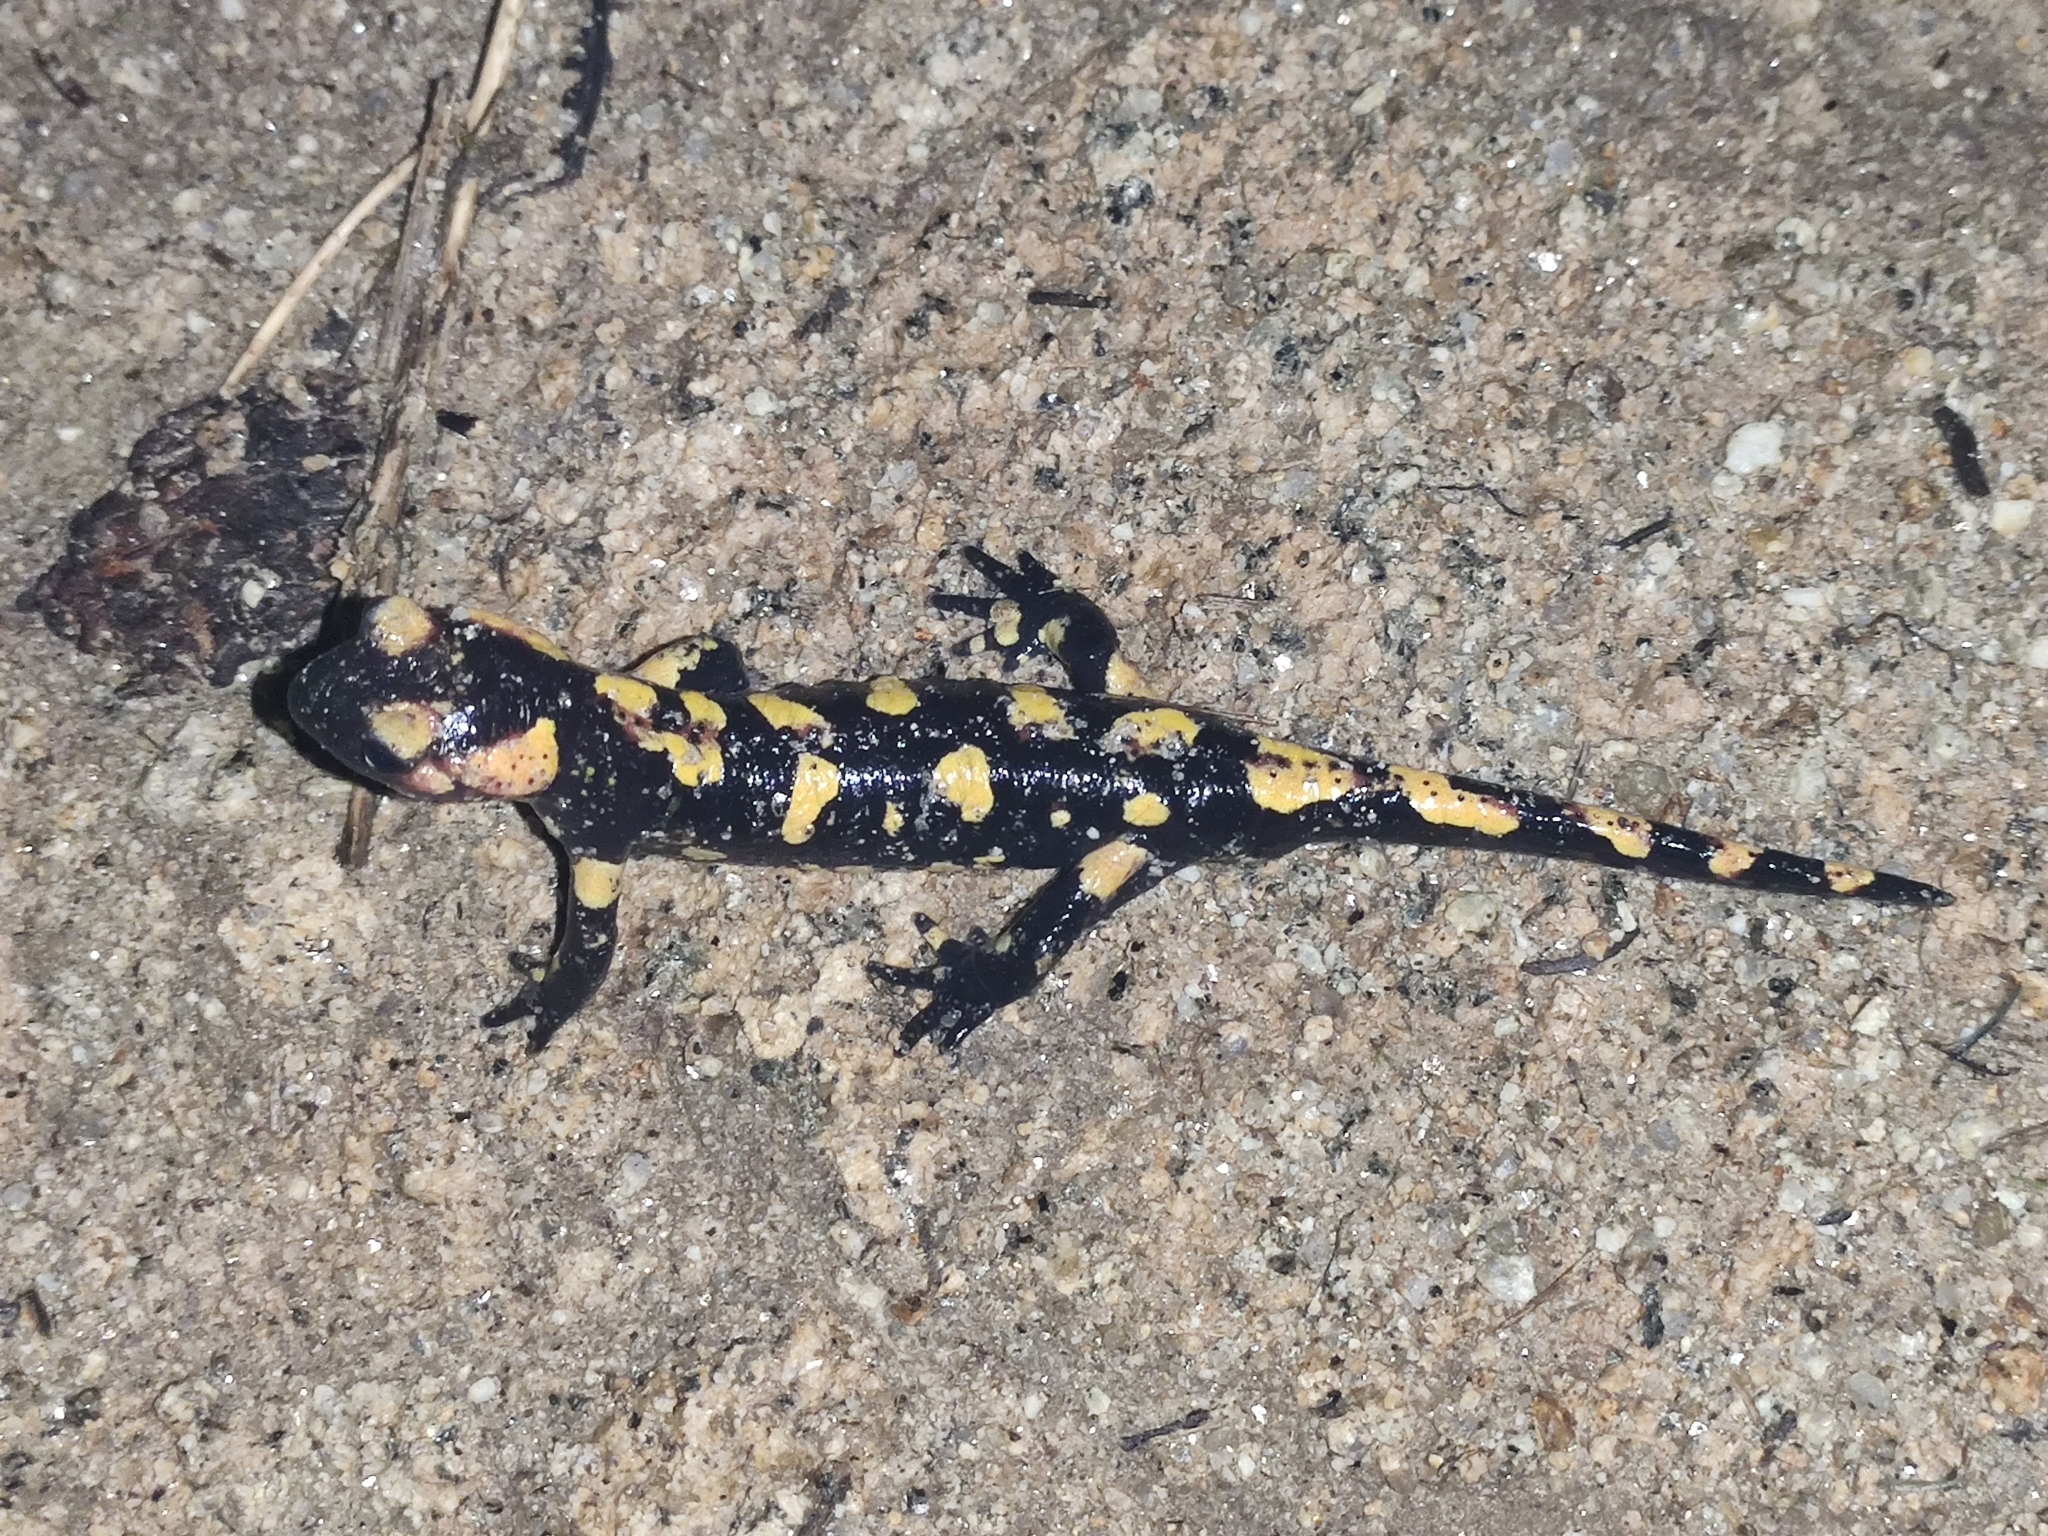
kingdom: Animalia
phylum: Chordata
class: Amphibia
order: Caudata
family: Salamandridae
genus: Salamandra
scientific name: Salamandra salamandra
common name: Fire salamander
